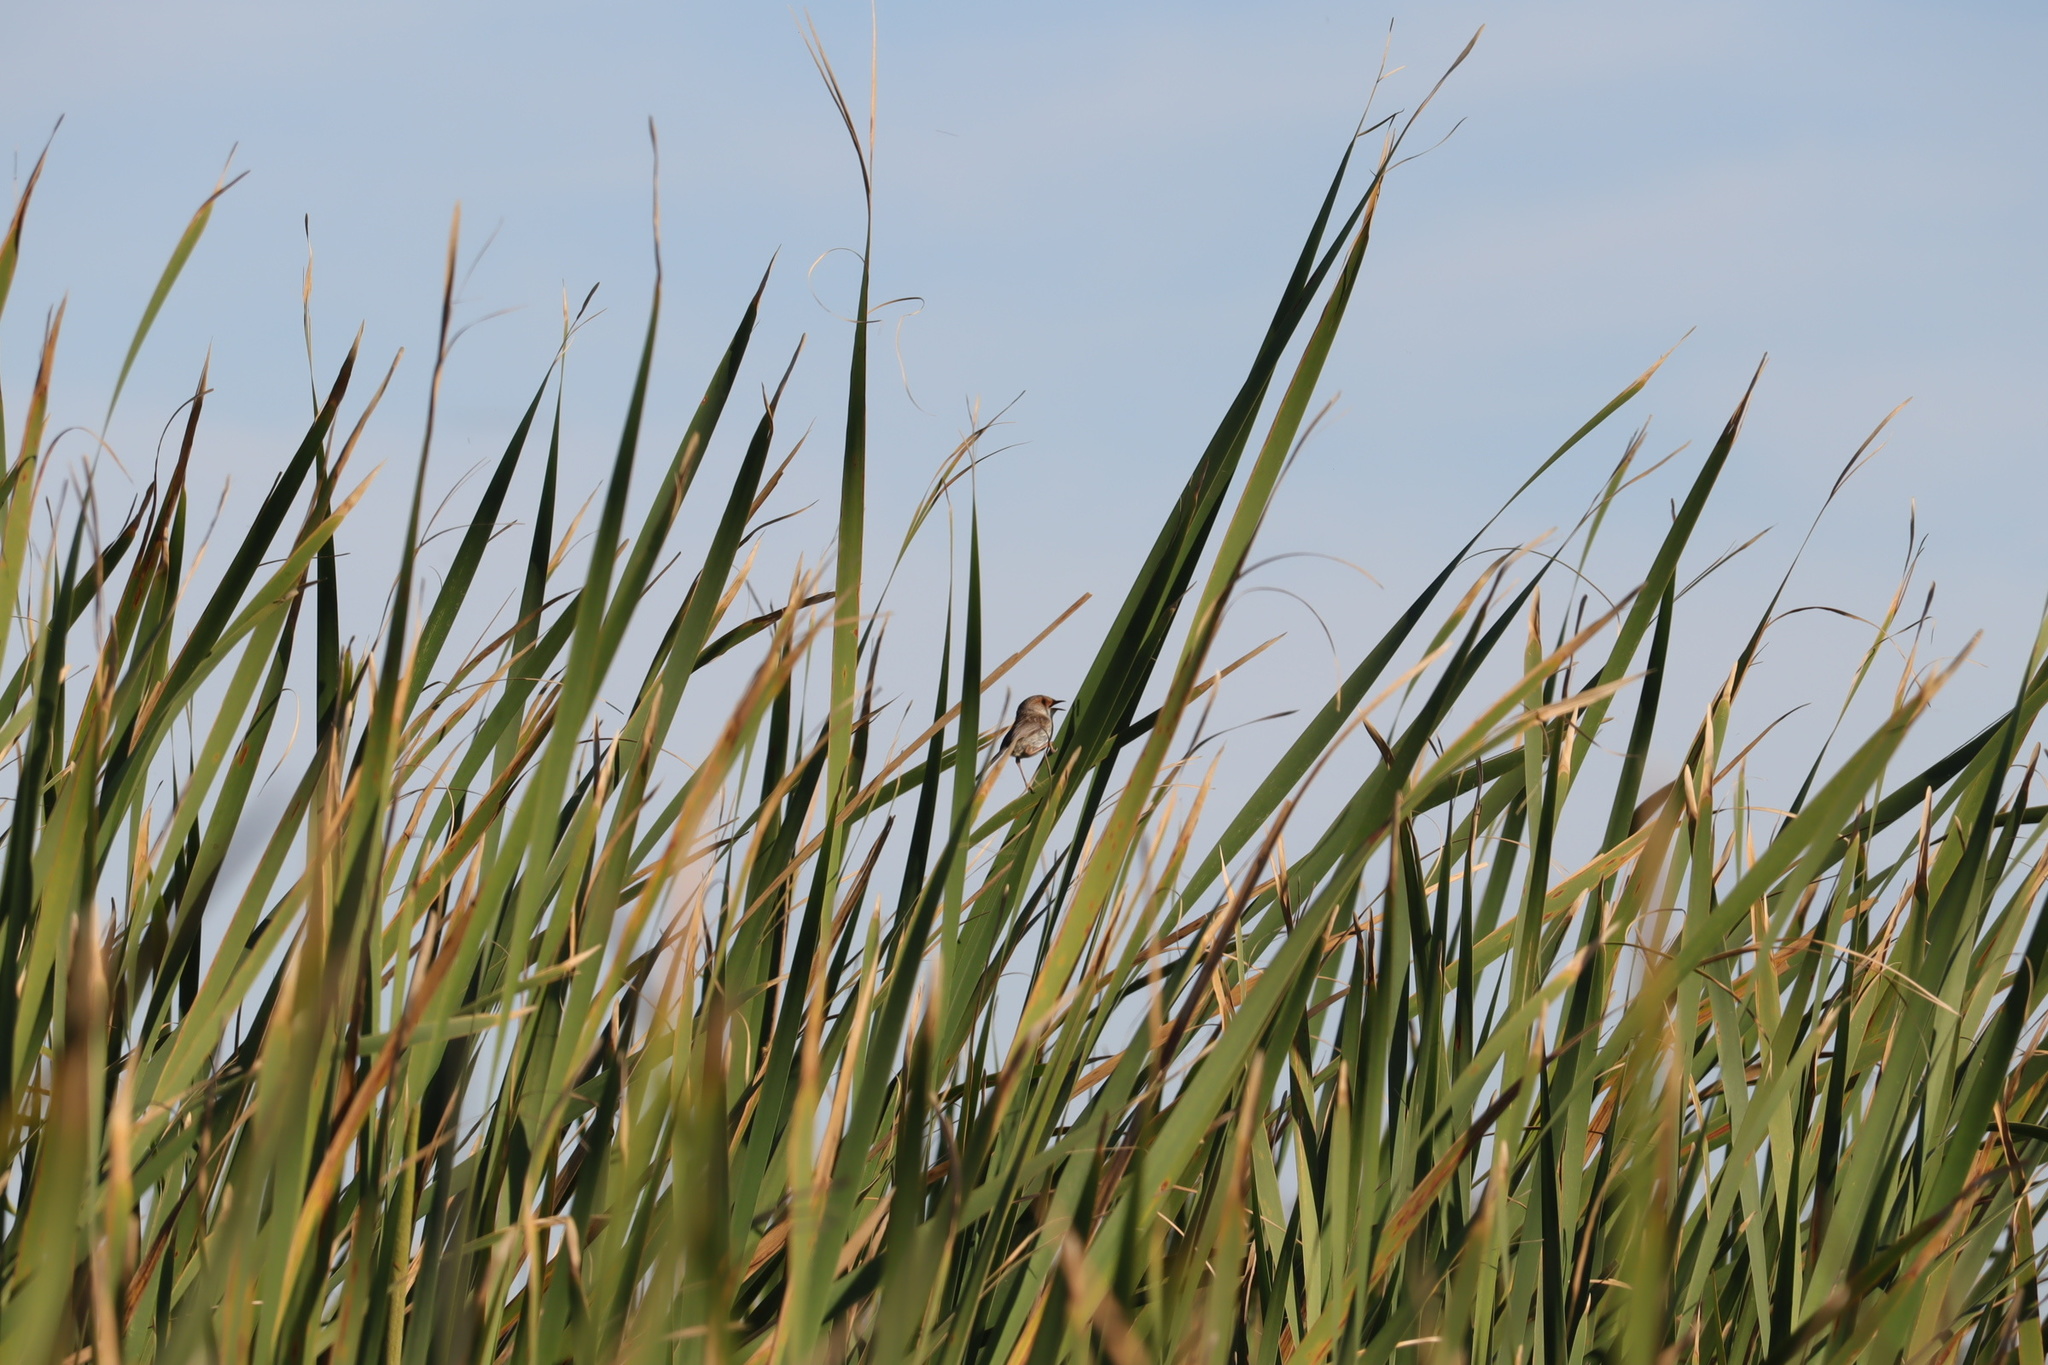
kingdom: Animalia
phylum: Chordata
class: Aves
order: Passeriformes
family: Maluridae
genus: Malurus
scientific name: Malurus cyaneus
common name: Superb fairywren
